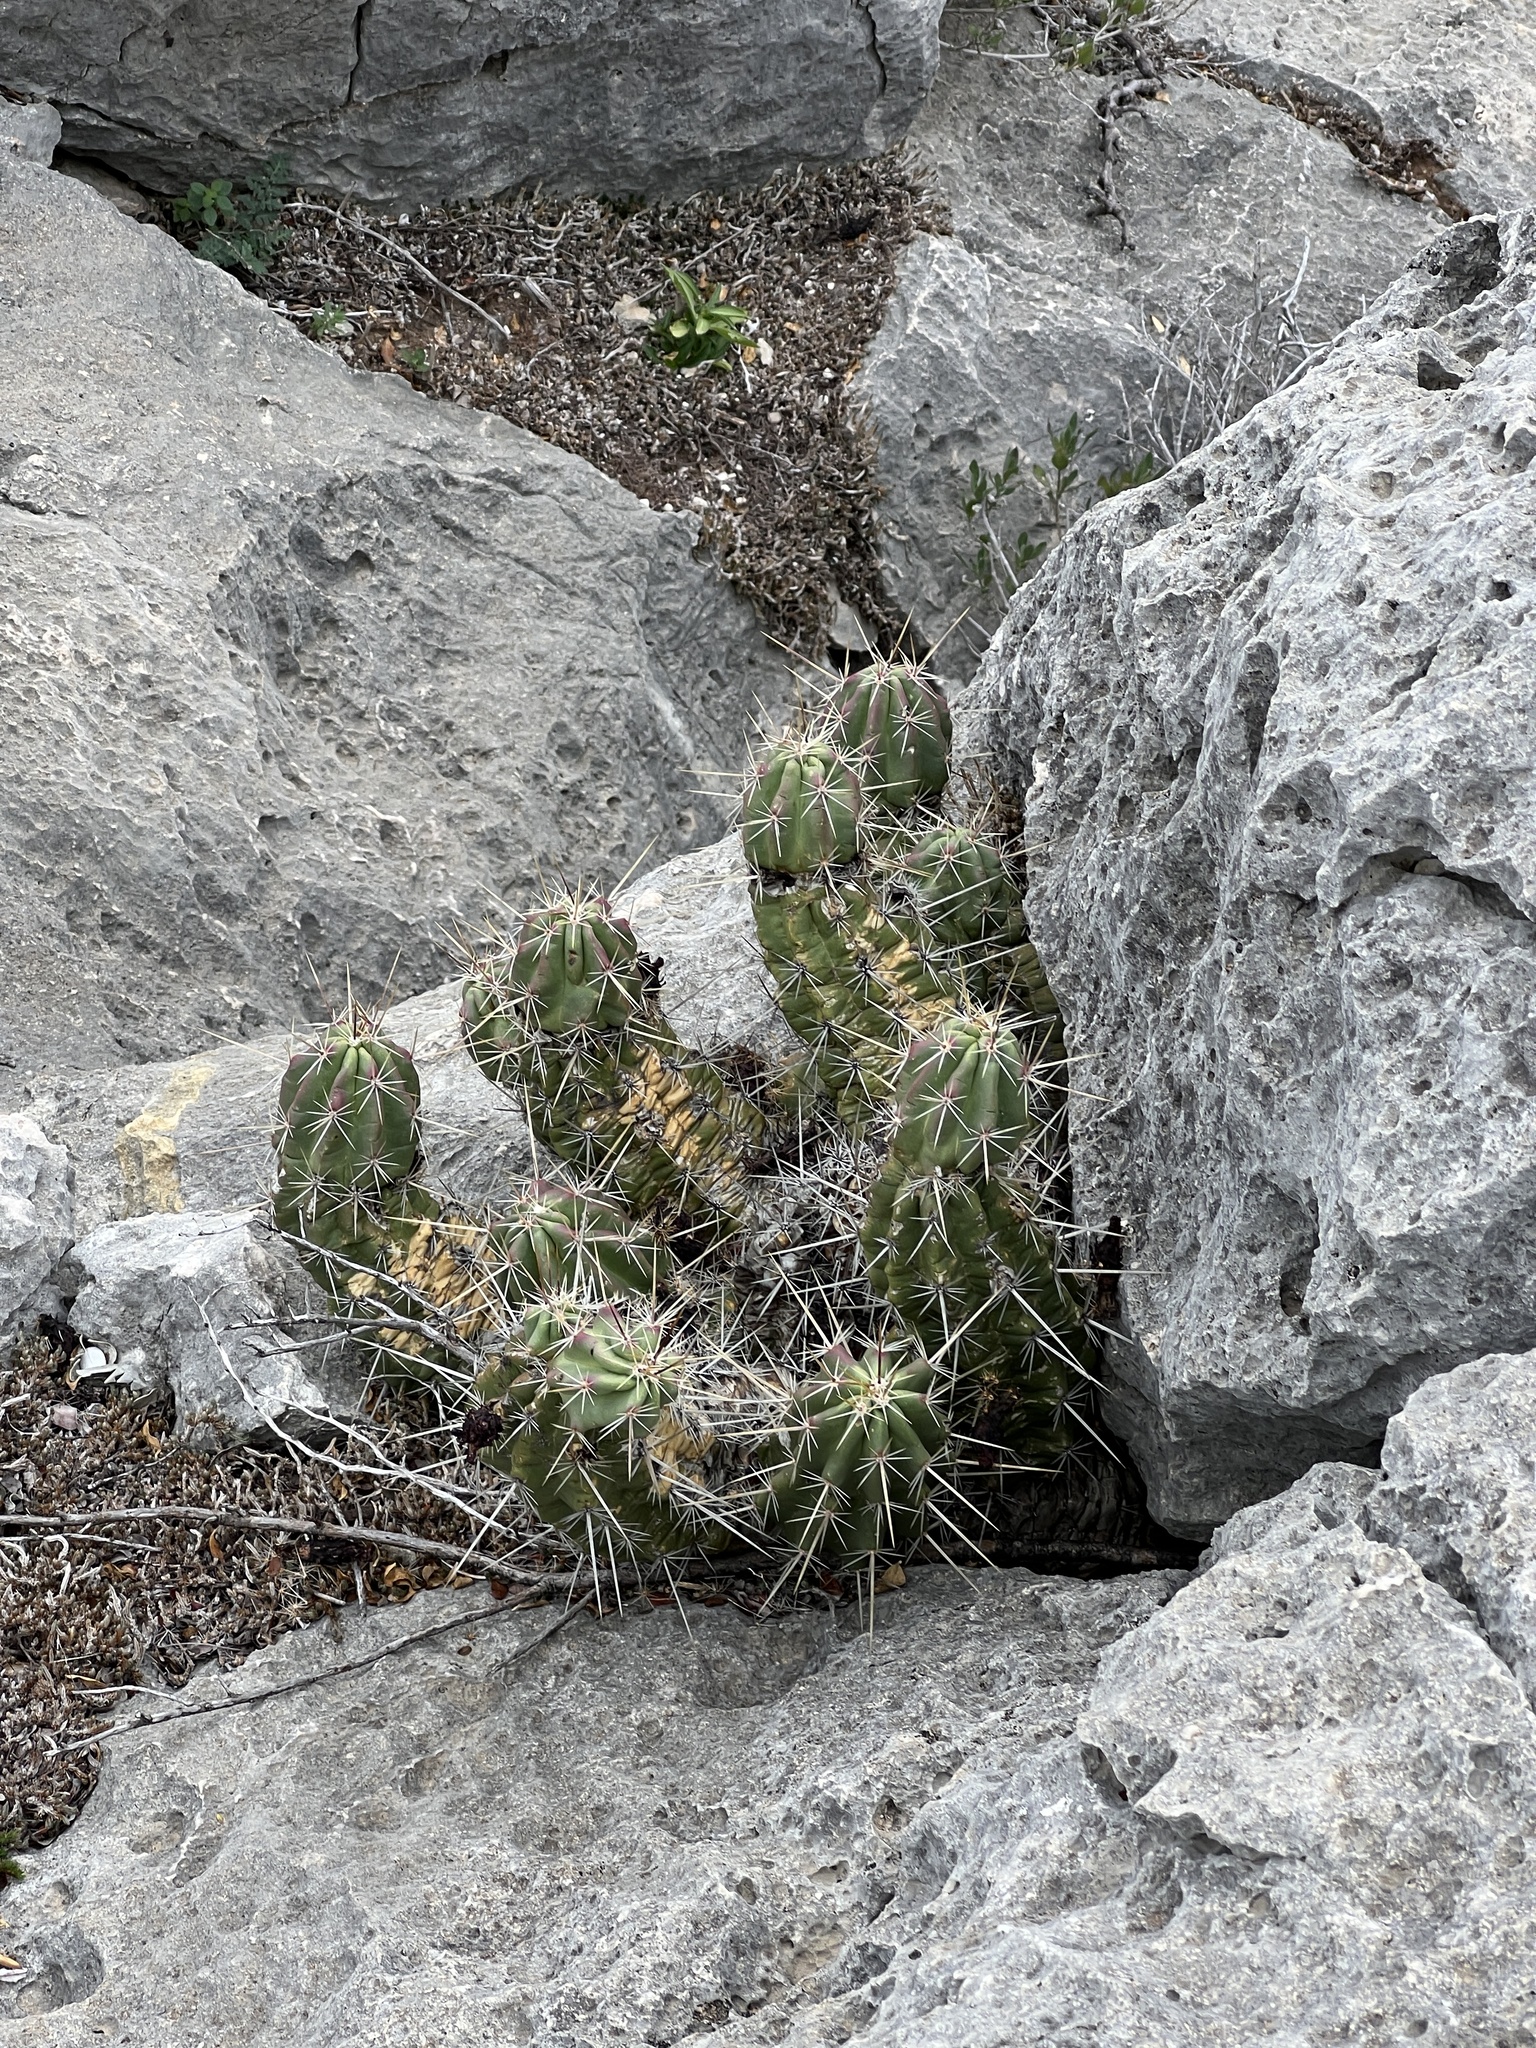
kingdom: Plantae
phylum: Tracheophyta
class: Magnoliopsida
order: Caryophyllales
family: Cactaceae
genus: Echinocereus
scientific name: Echinocereus enneacanthus
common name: Pitaya
